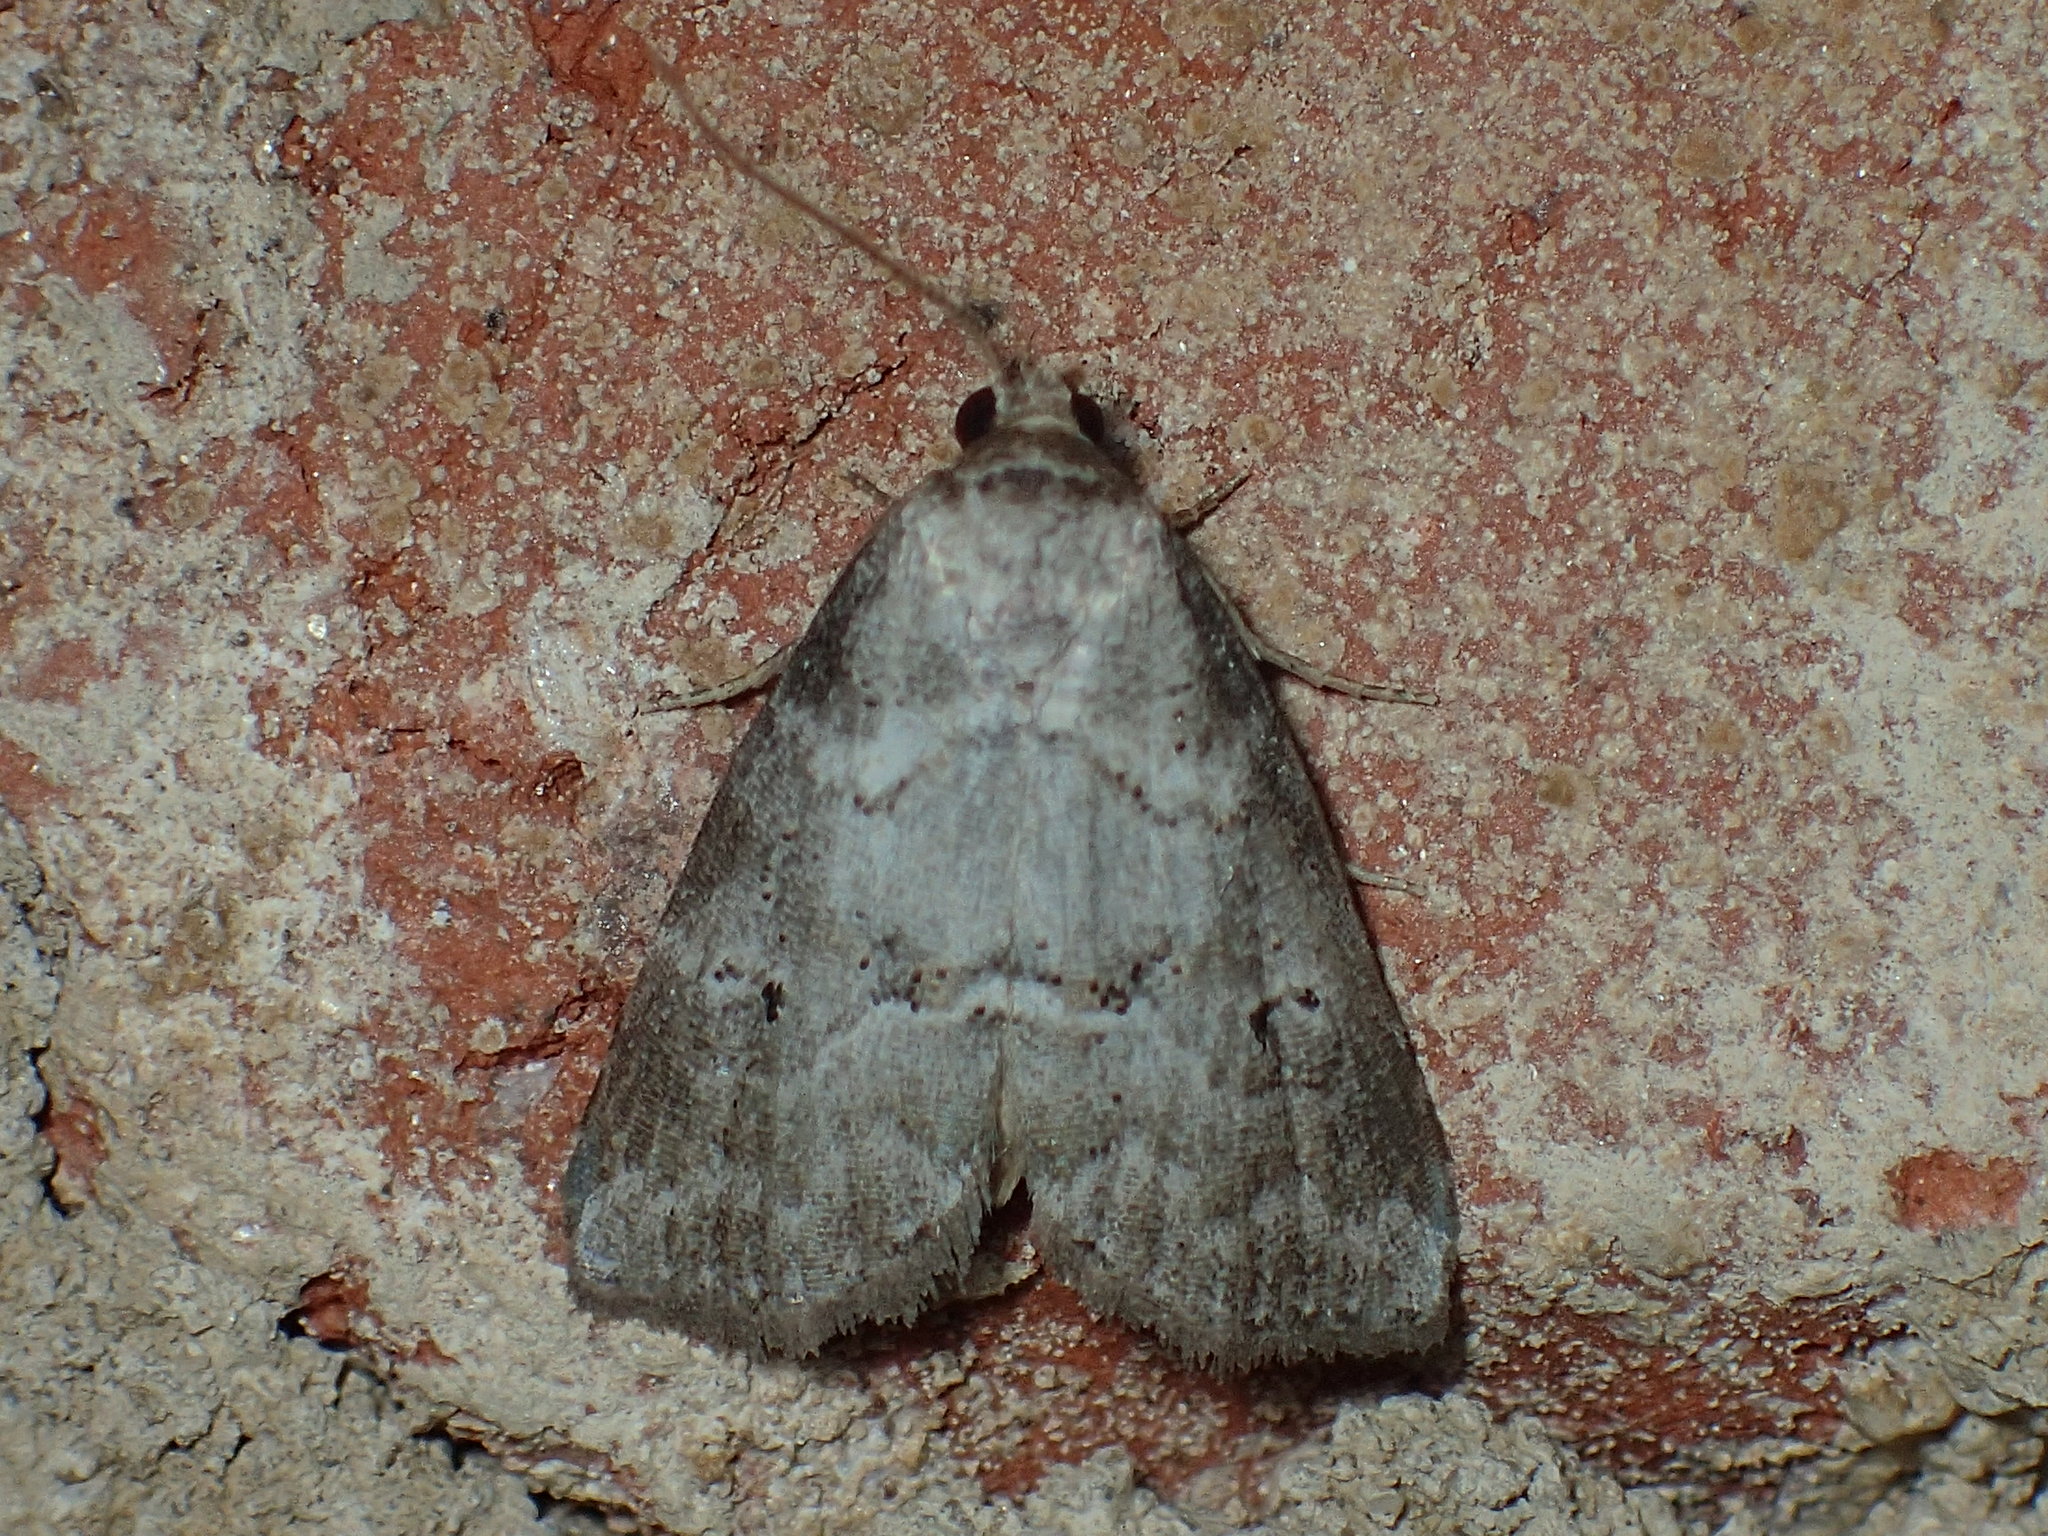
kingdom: Animalia
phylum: Arthropoda
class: Insecta
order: Lepidoptera
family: Erebidae
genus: Hyperstrotia
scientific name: Hyperstrotia pervertens
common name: Dotted graylet
